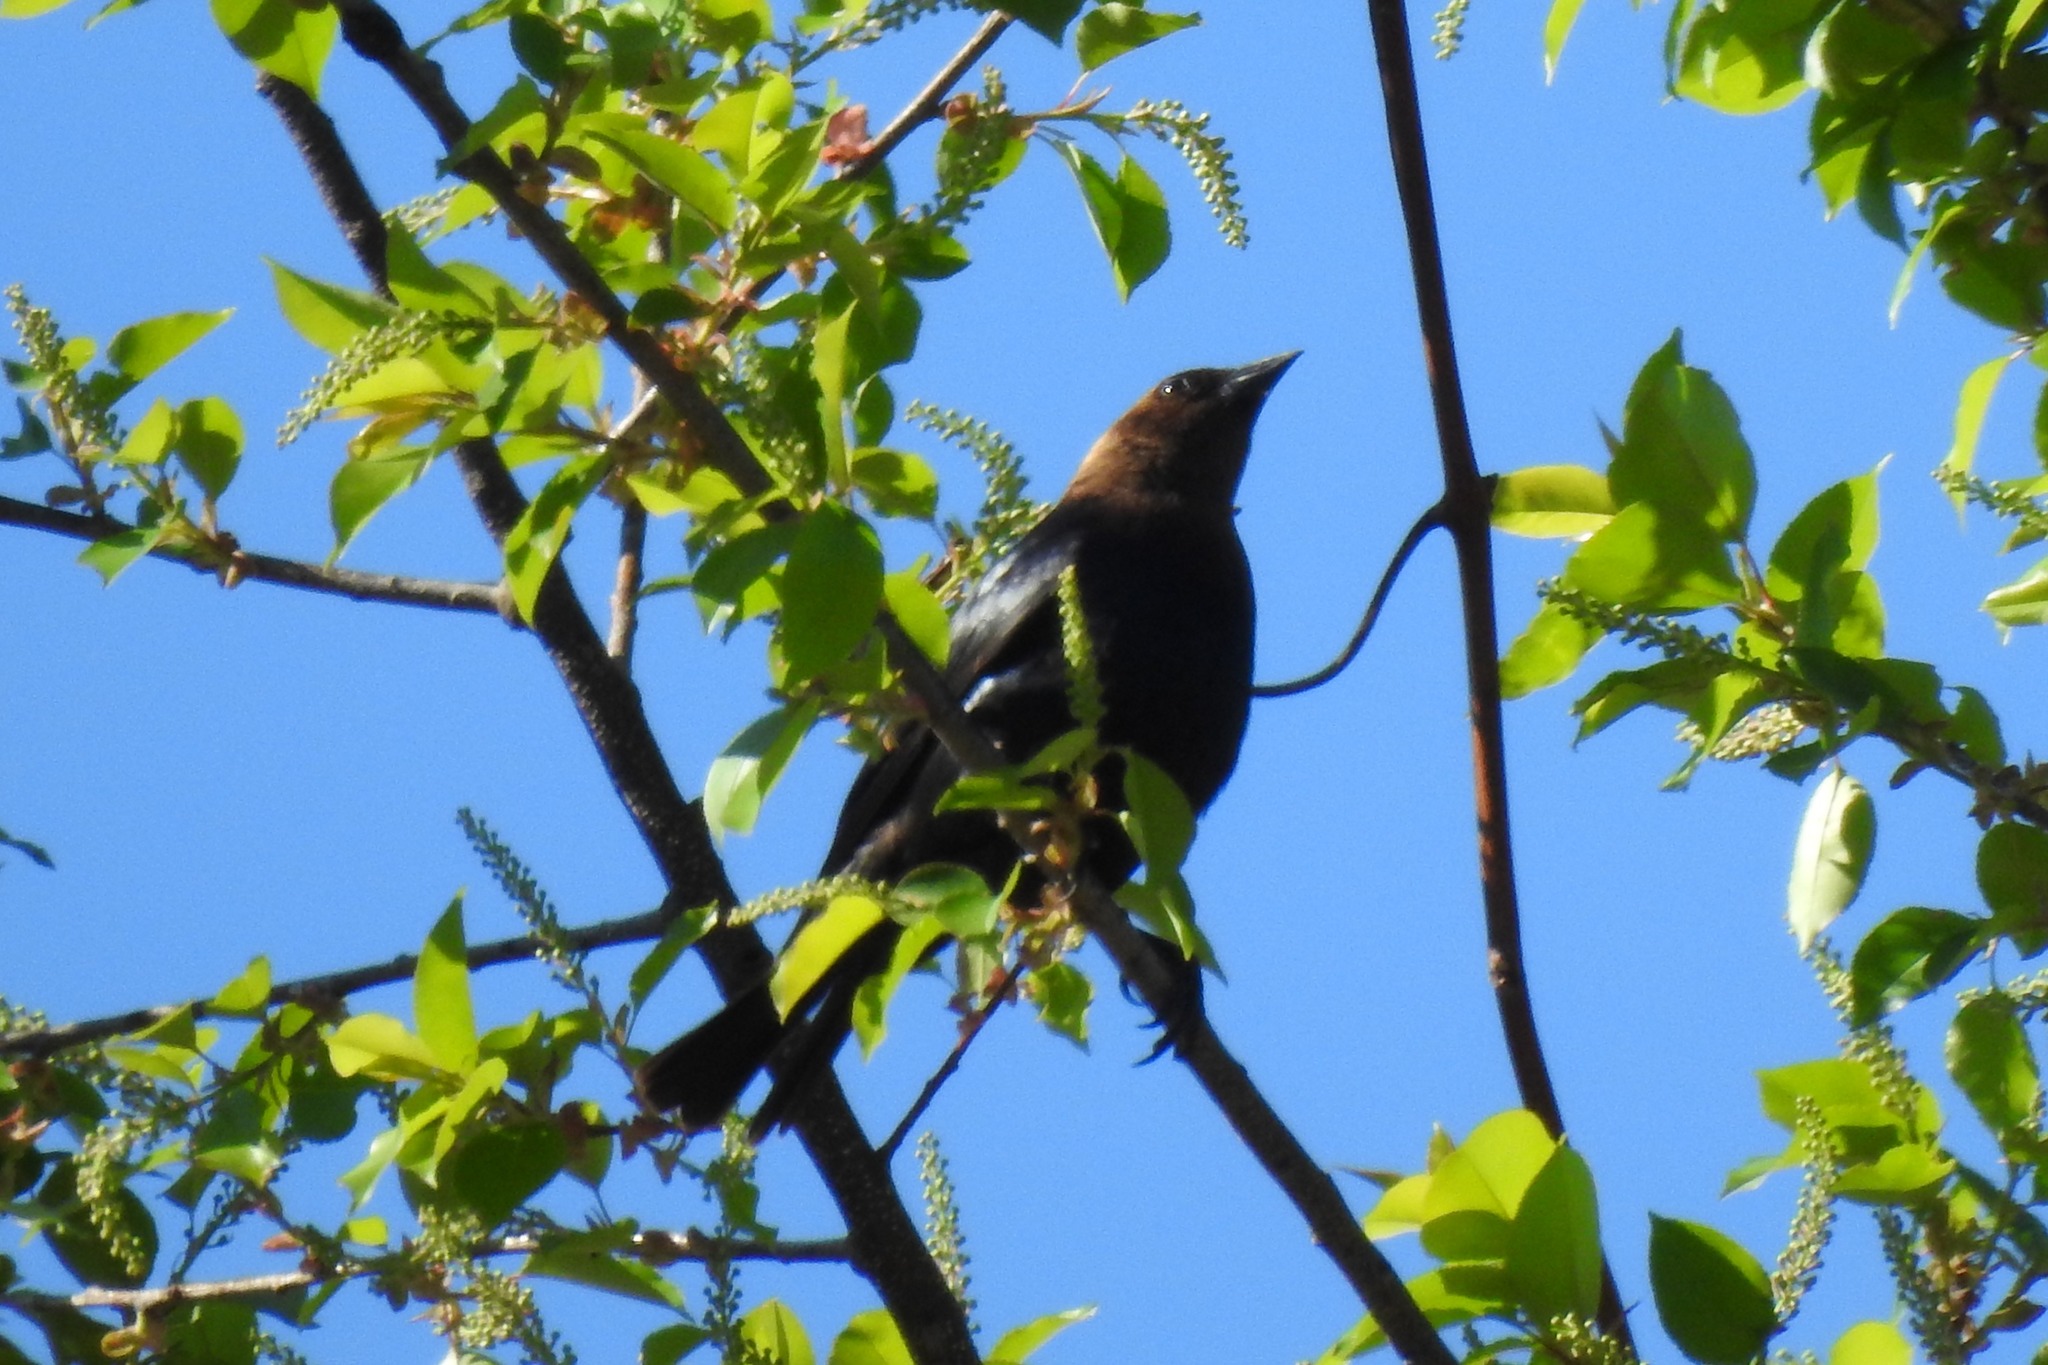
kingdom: Animalia
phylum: Chordata
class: Aves
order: Passeriformes
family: Icteridae
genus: Molothrus
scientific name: Molothrus ater
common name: Brown-headed cowbird
